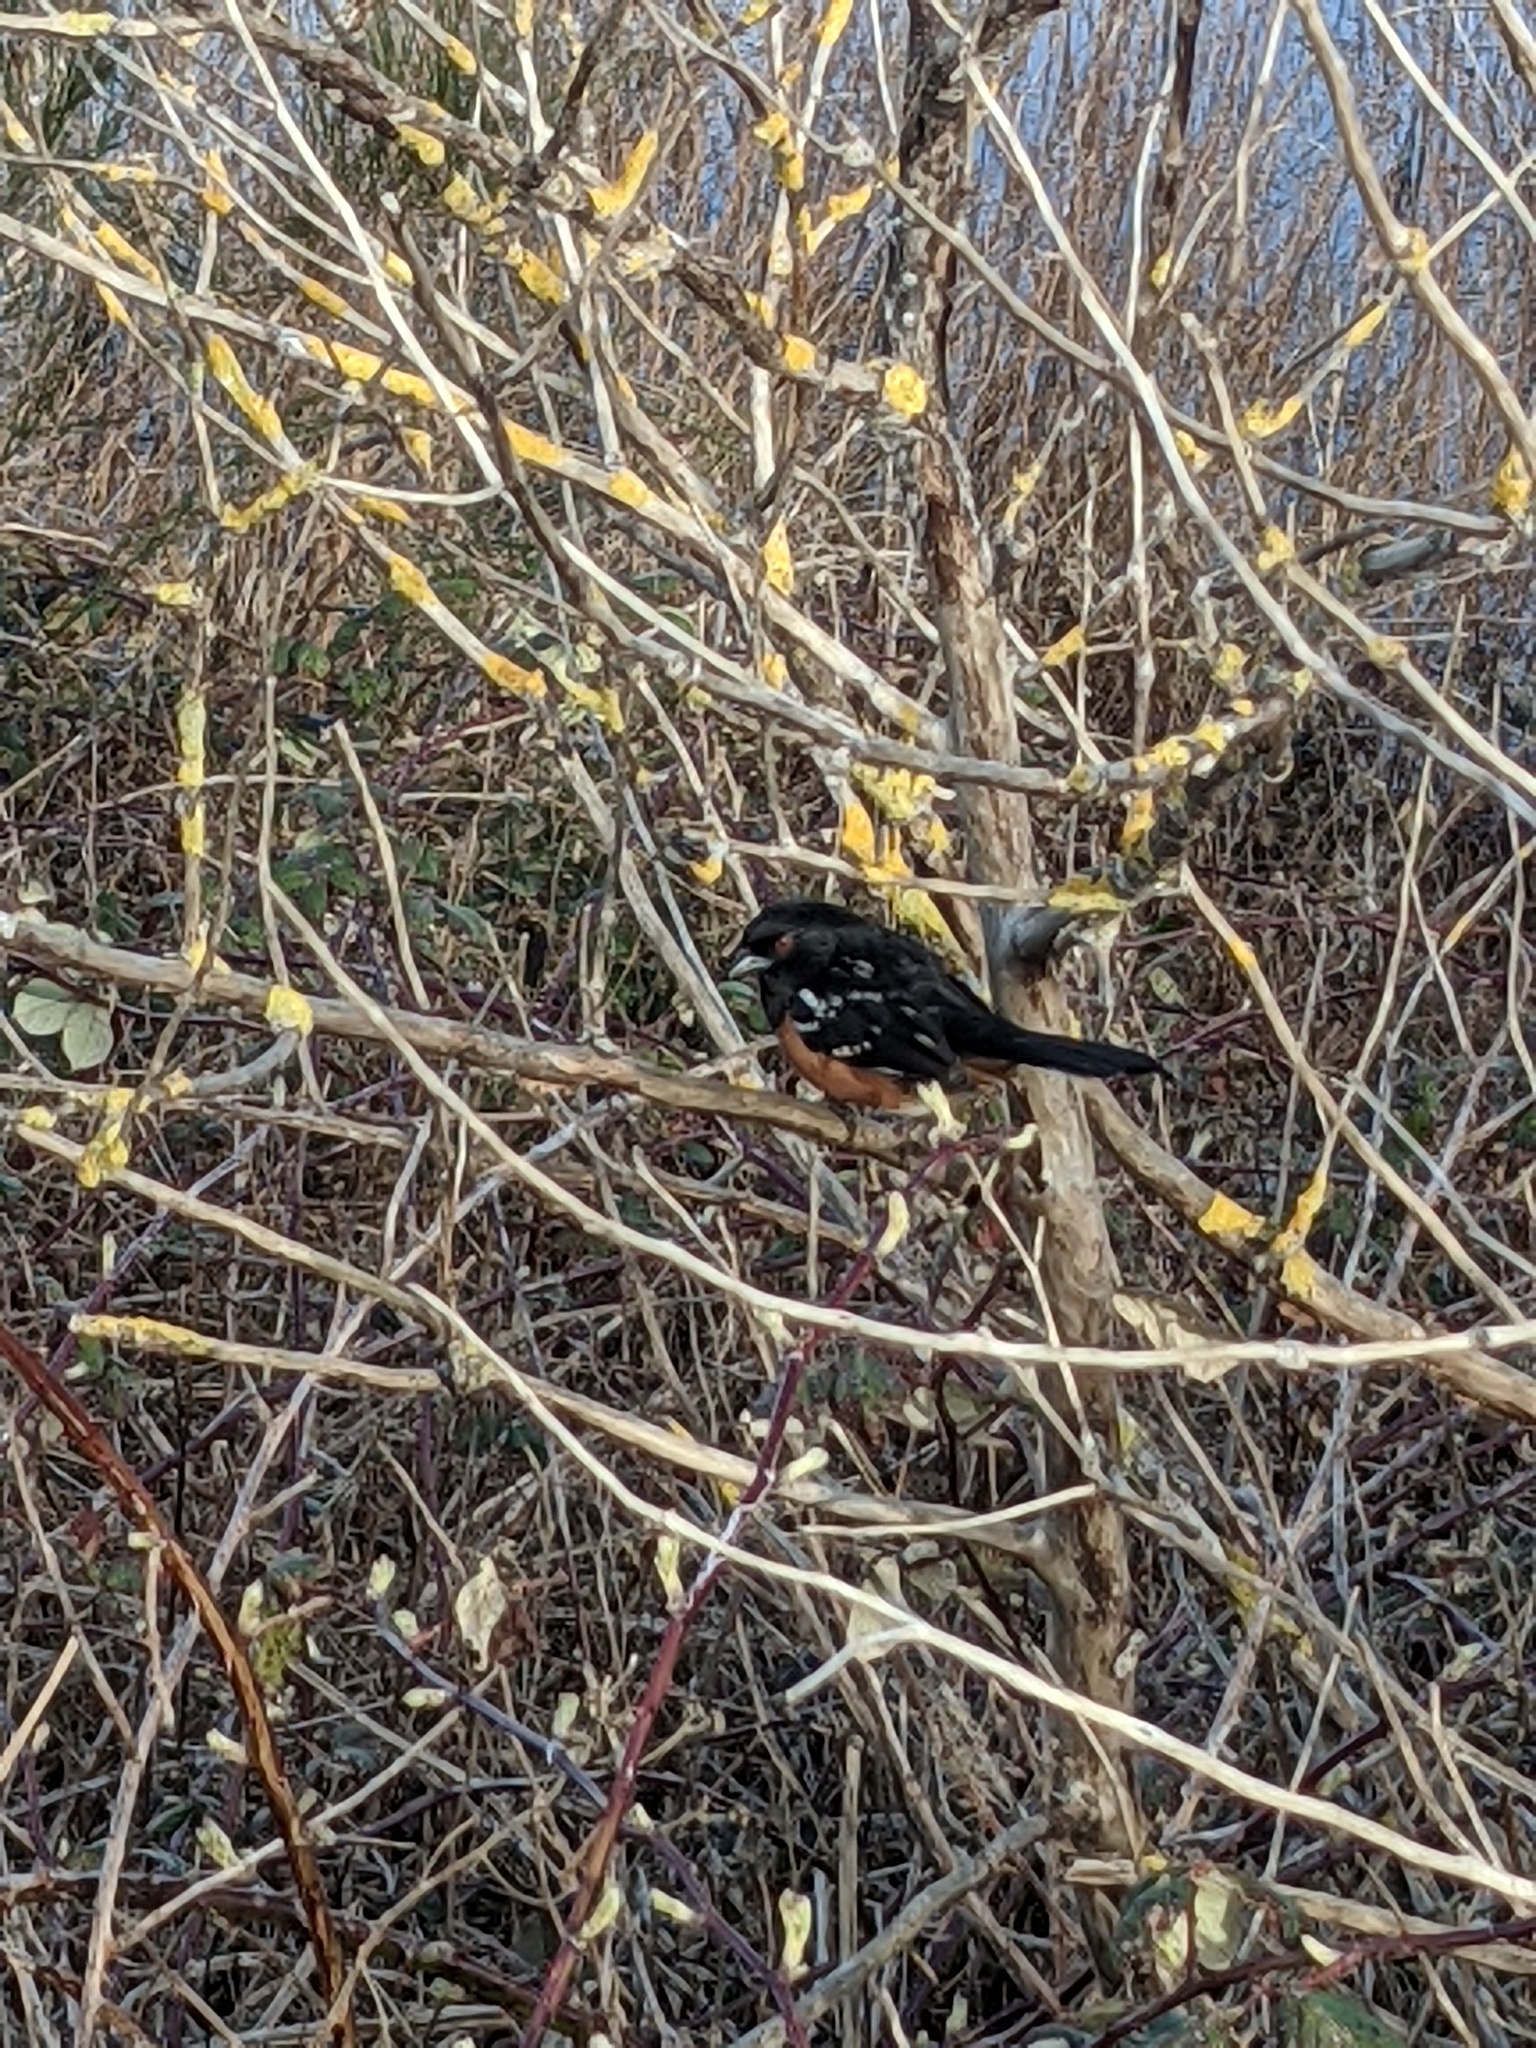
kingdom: Animalia
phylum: Chordata
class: Aves
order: Passeriformes
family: Passerellidae
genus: Pipilo
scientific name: Pipilo maculatus
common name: Spotted towhee
